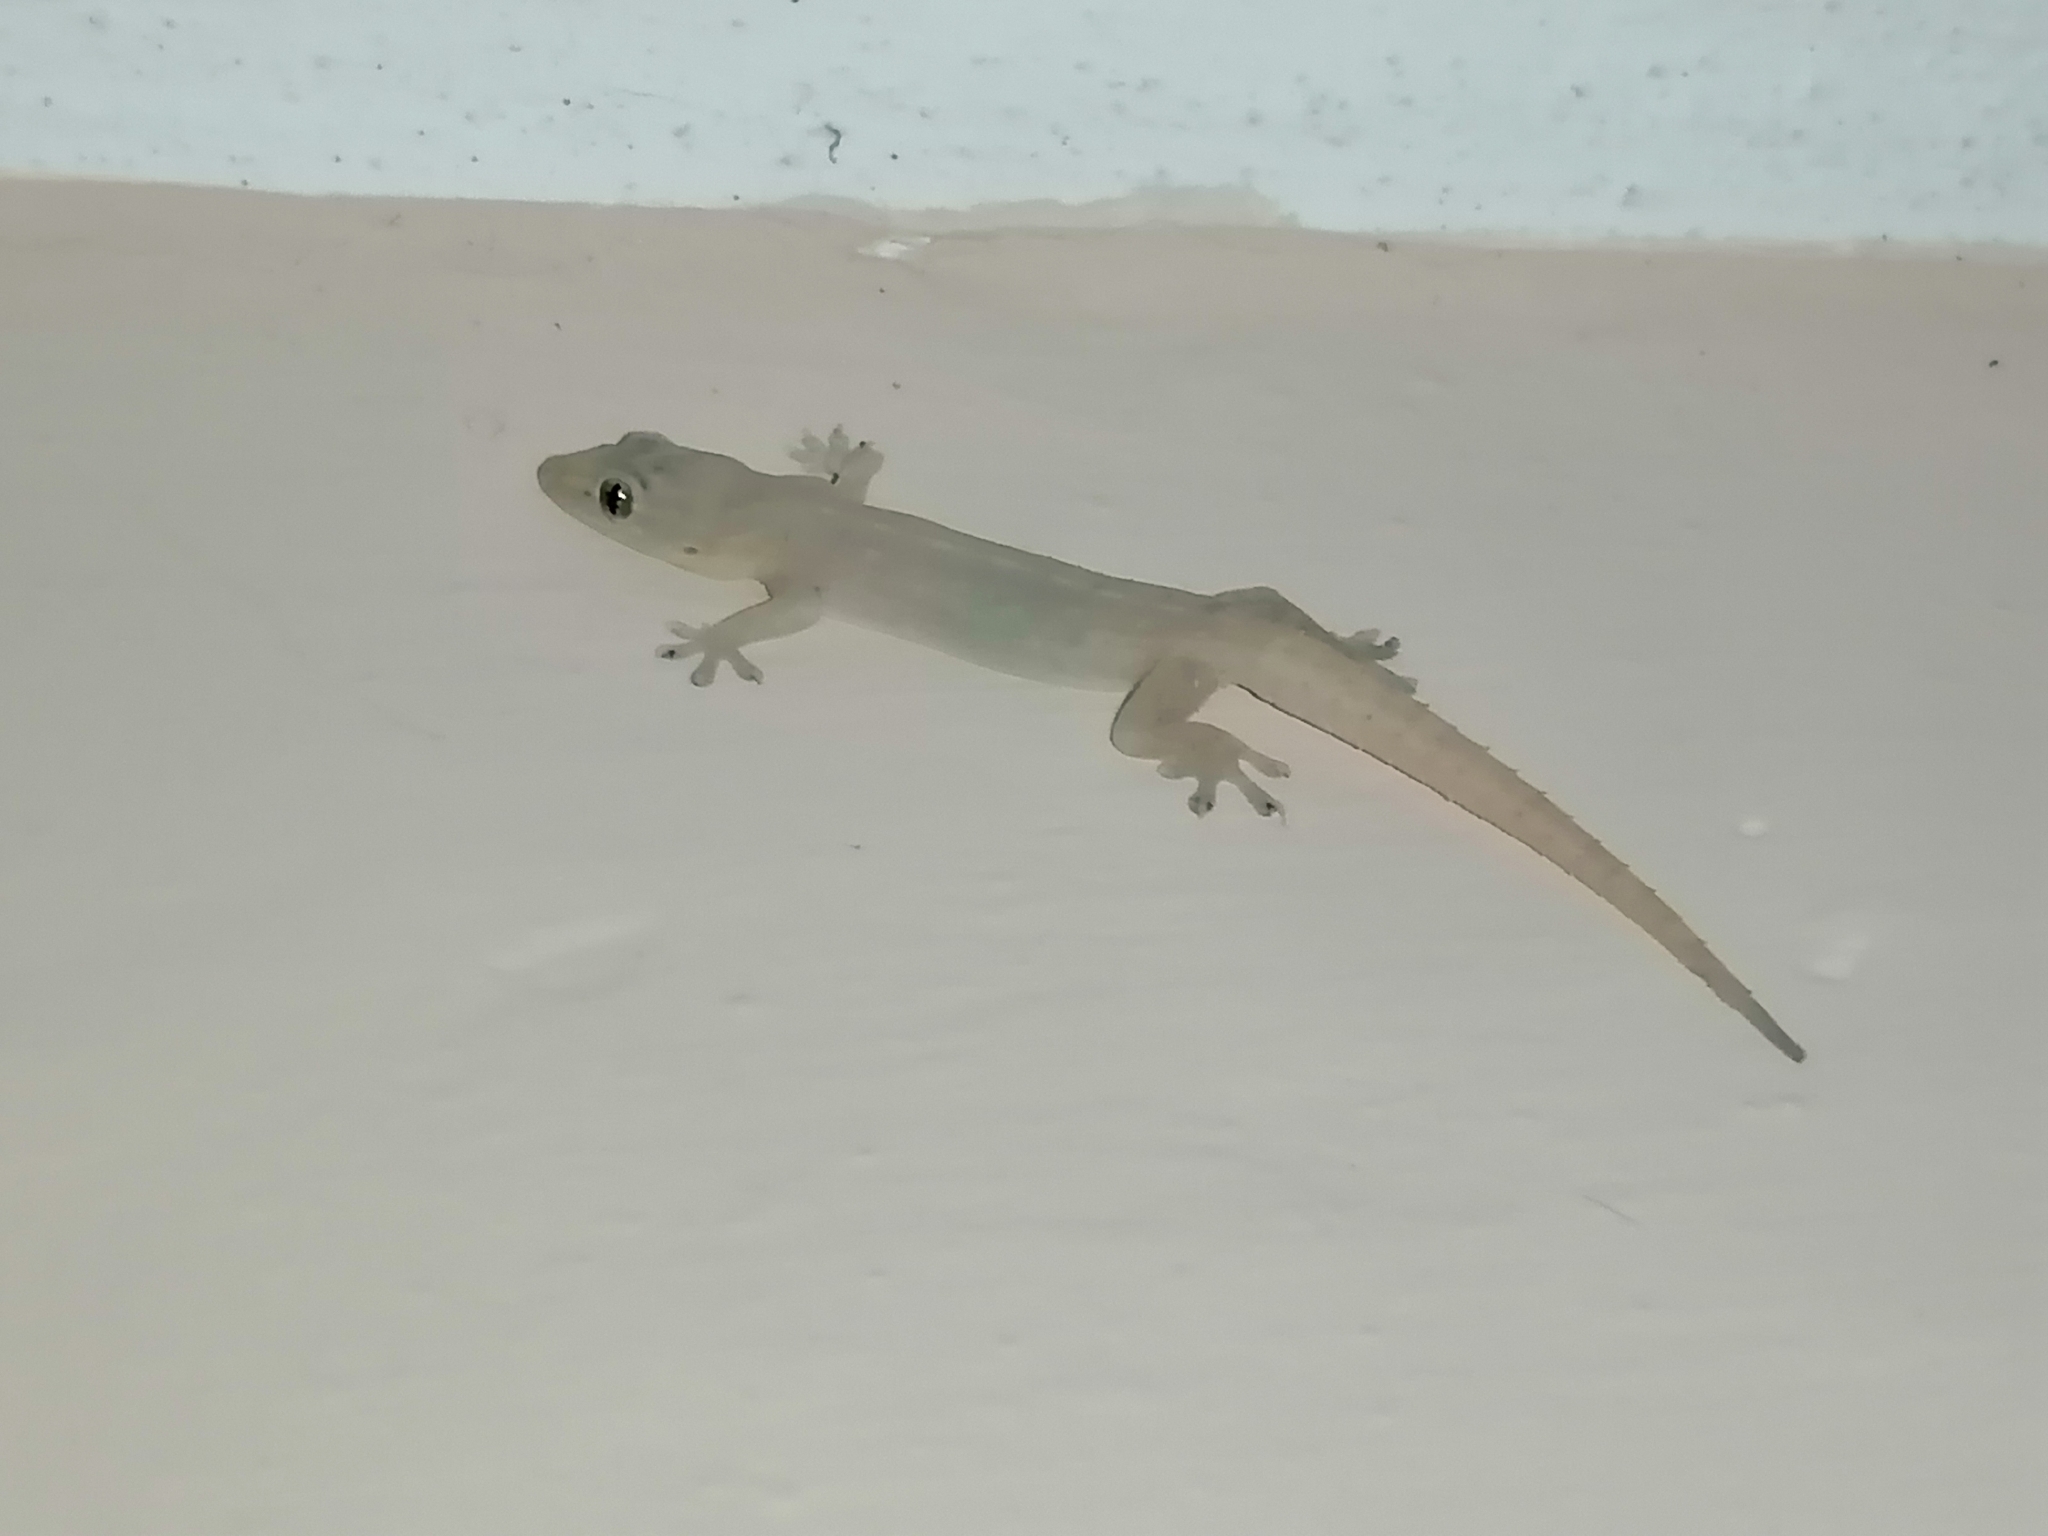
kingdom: Animalia
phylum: Chordata
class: Squamata
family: Gekkonidae
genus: Hemidactylus
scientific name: Hemidactylus frenatus
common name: Common house gecko
